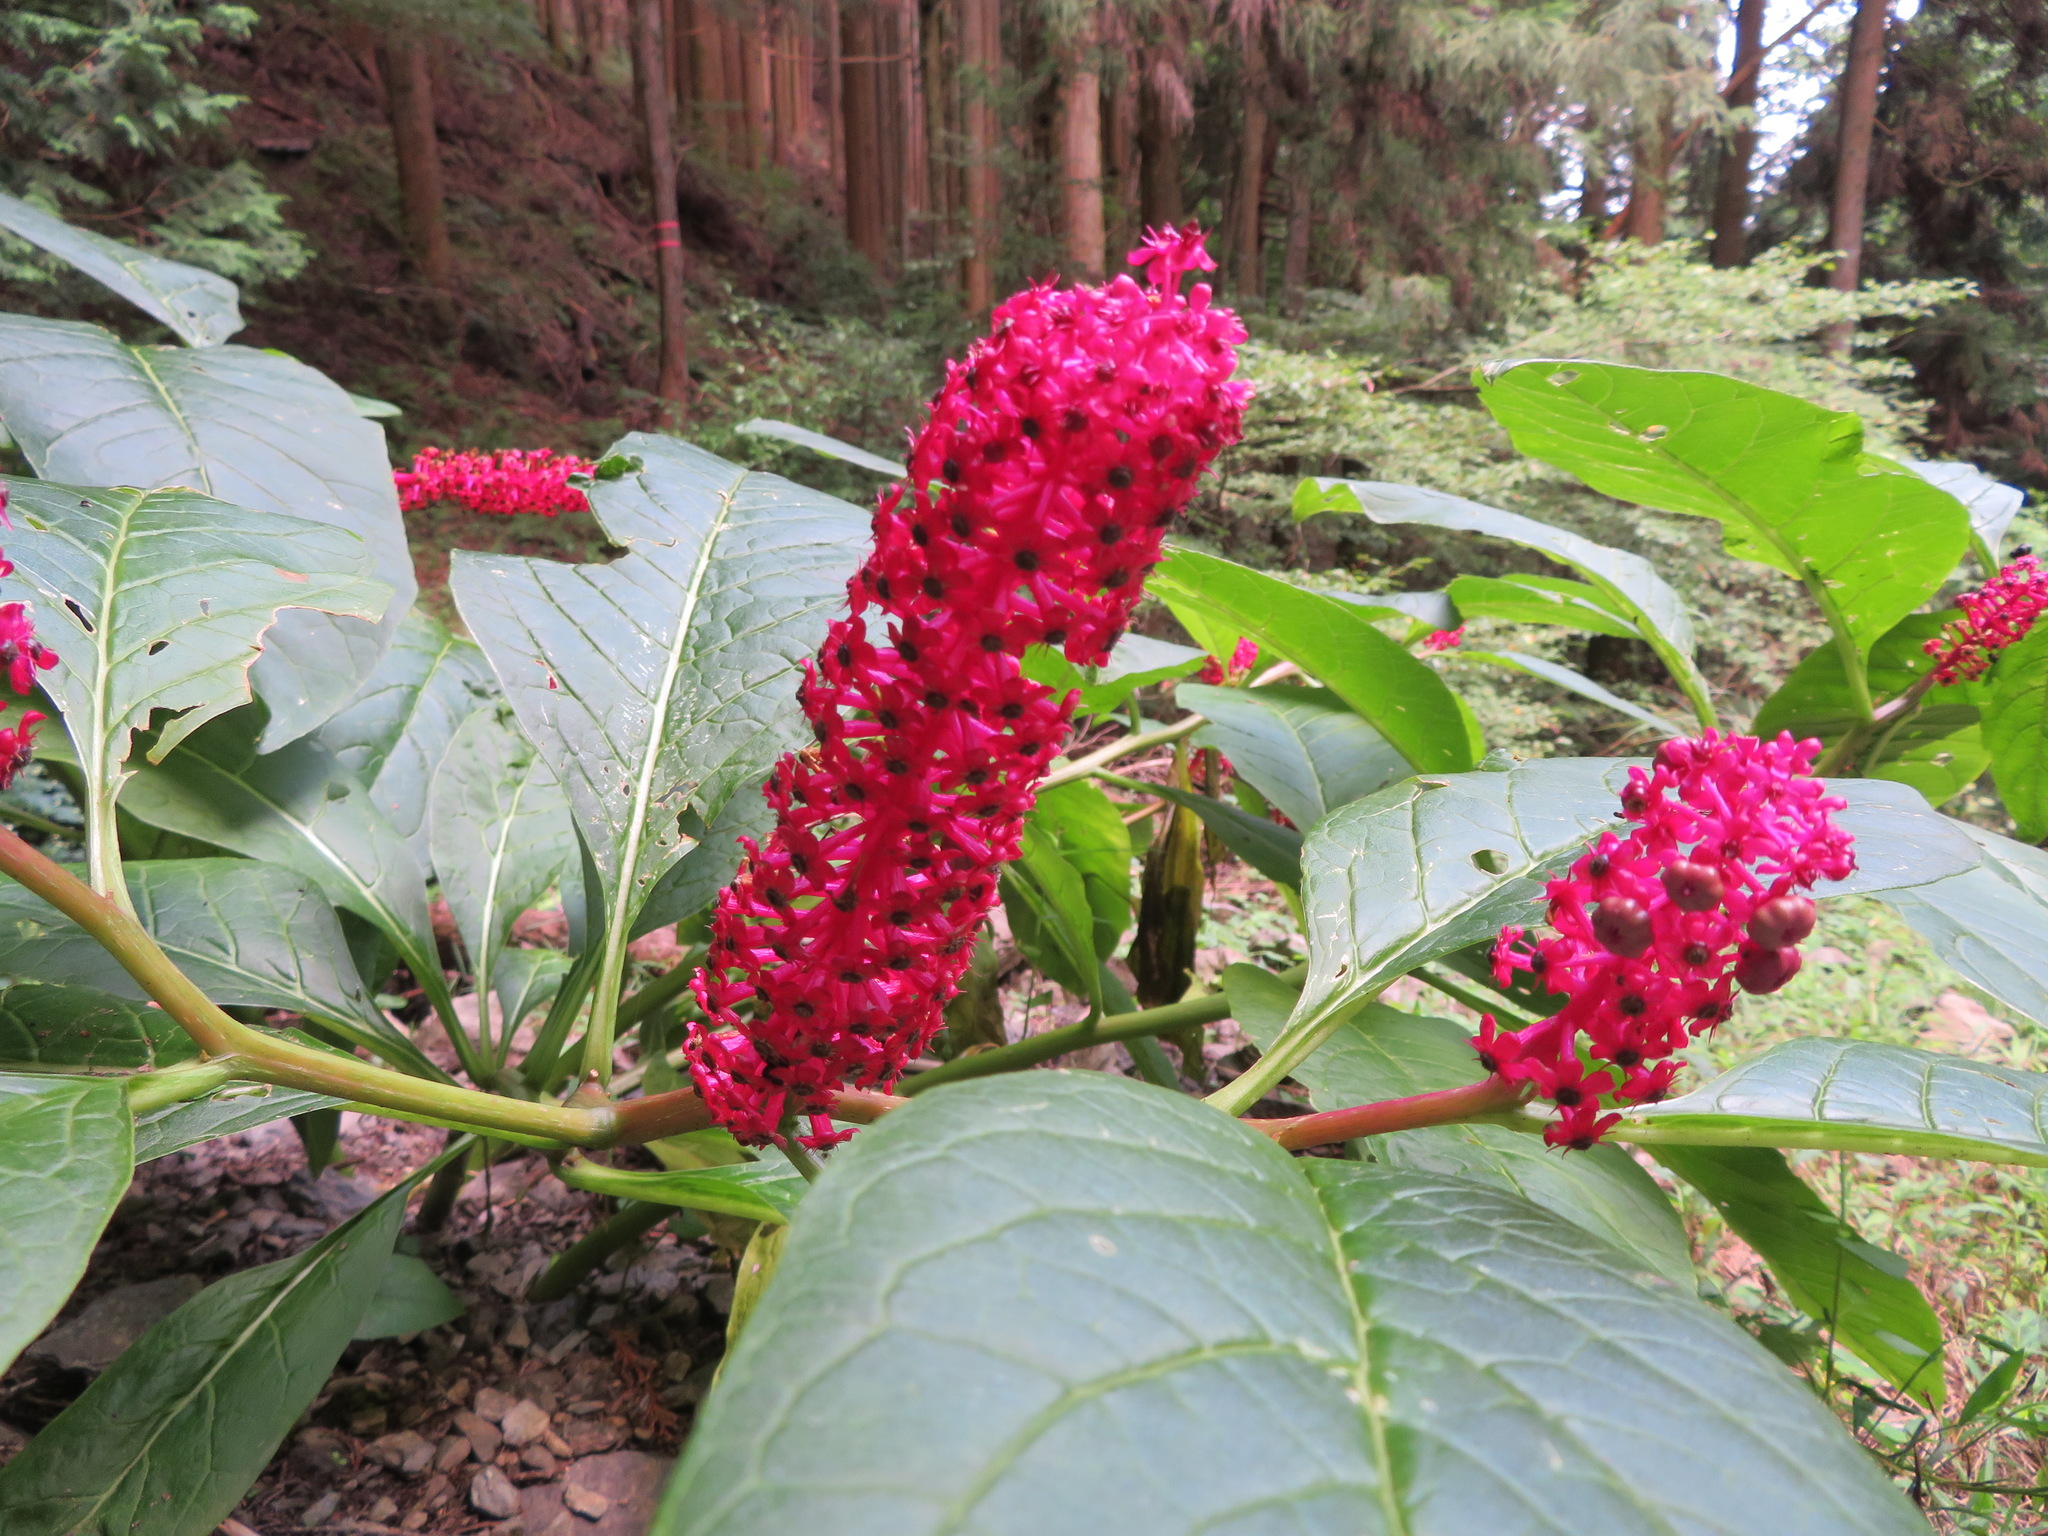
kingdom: Plantae
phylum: Tracheophyta
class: Magnoliopsida
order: Caryophyllales
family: Phytolaccaceae
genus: Phytolacca
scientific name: Phytolacca japonica
